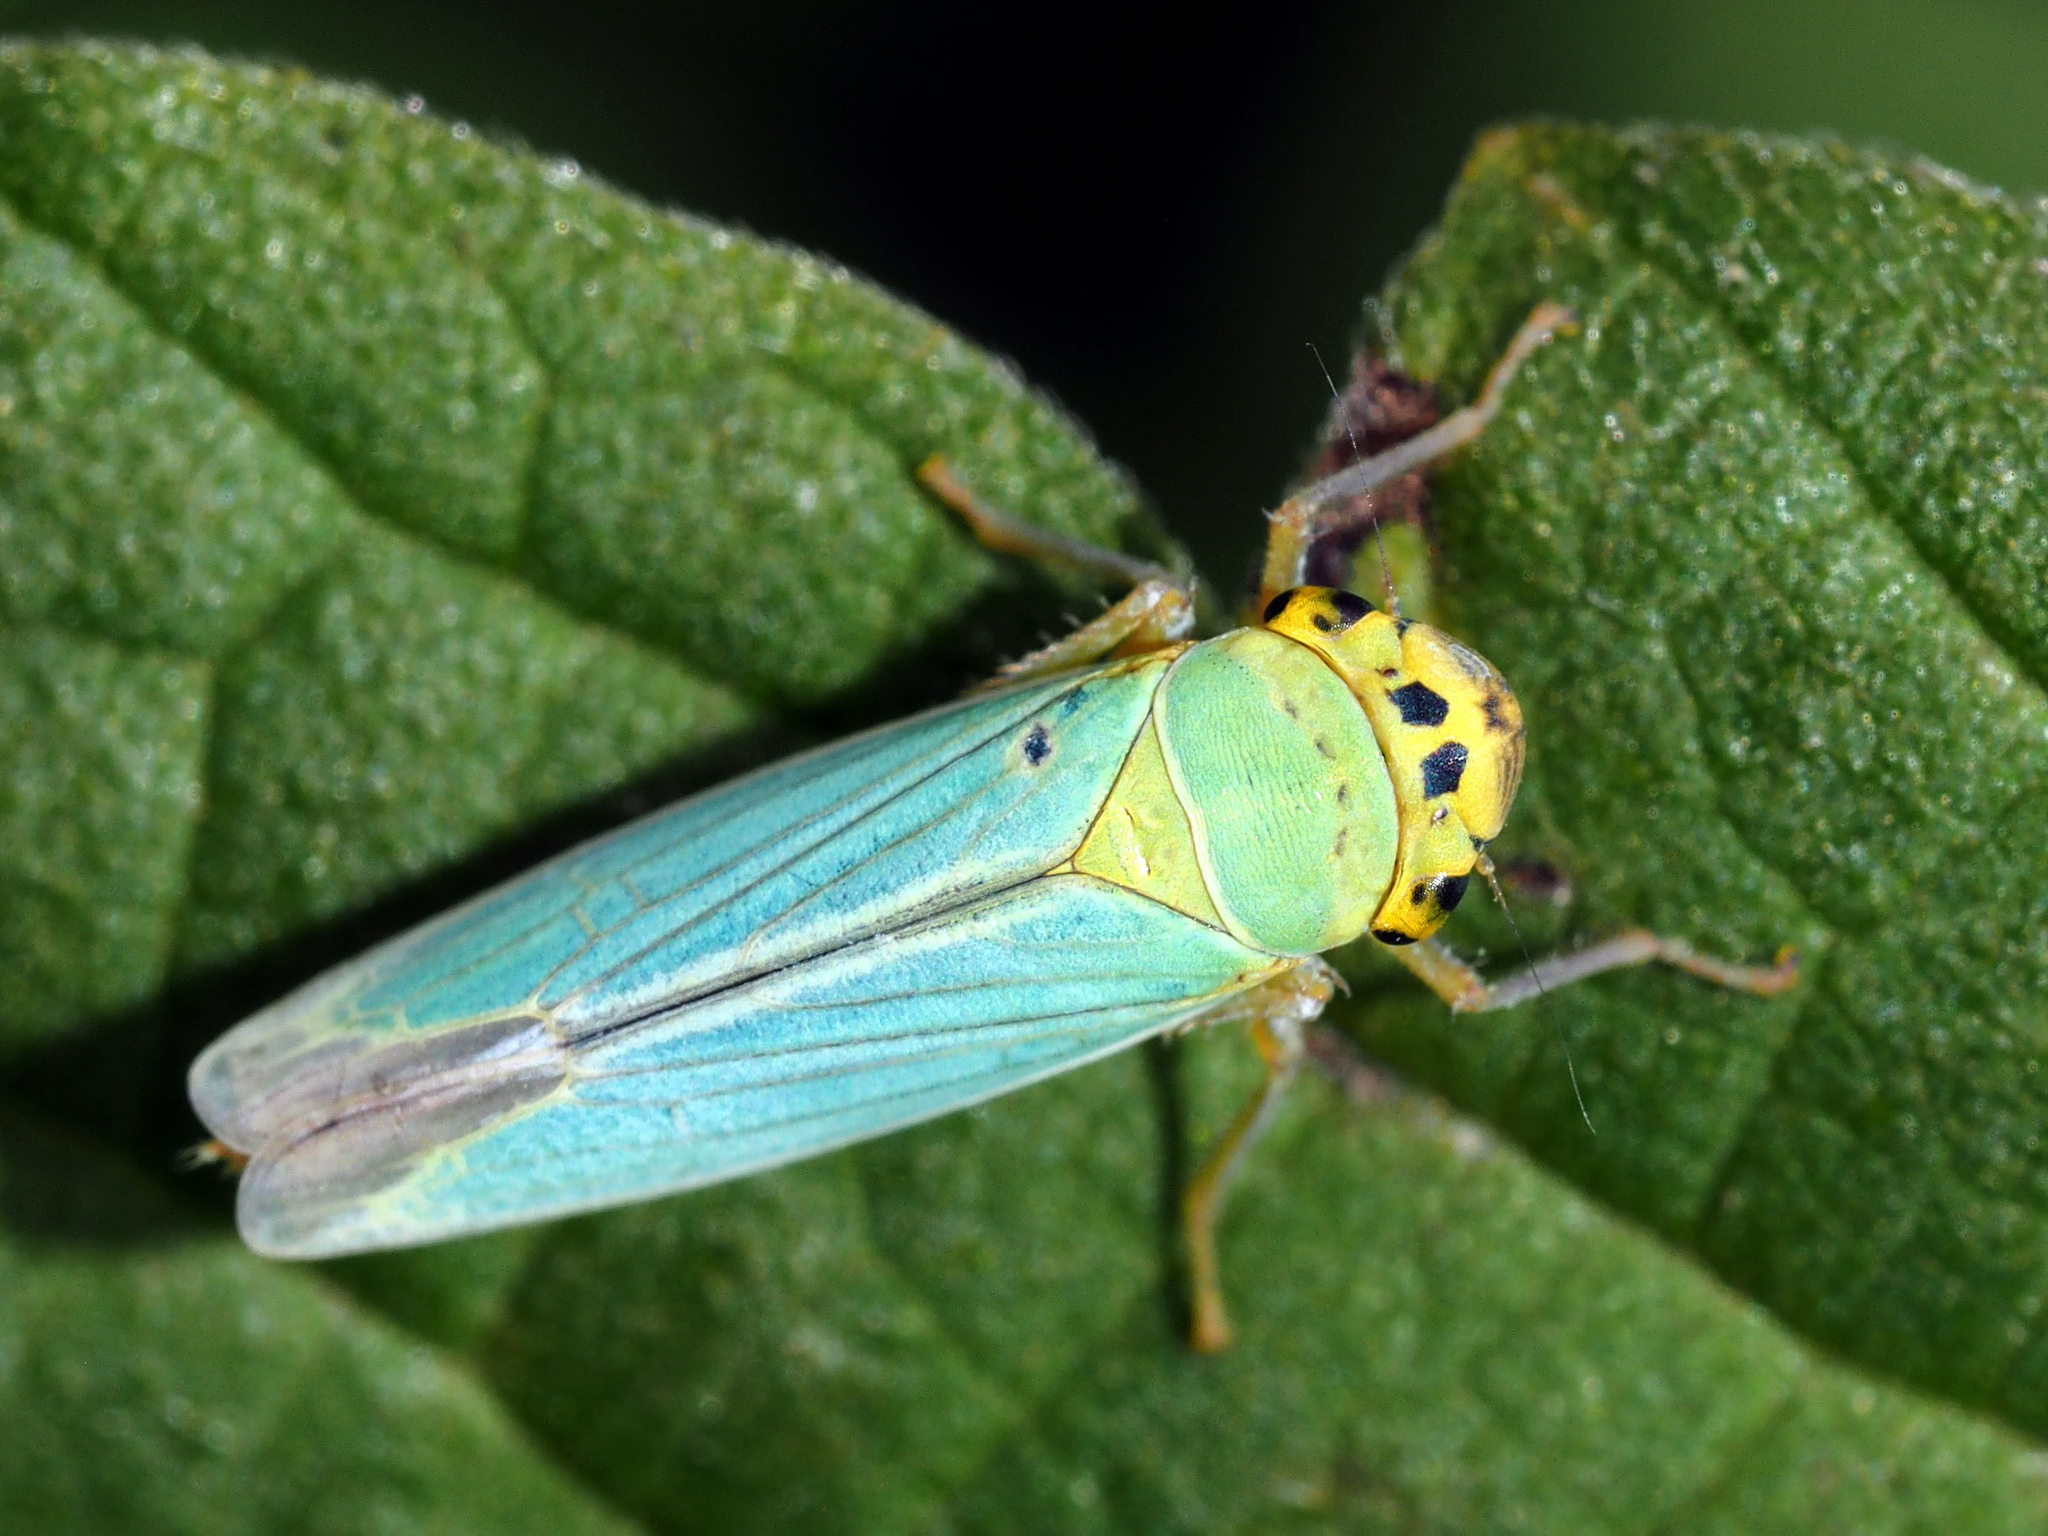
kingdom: Animalia
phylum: Arthropoda
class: Insecta
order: Hemiptera
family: Cicadellidae
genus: Cicadella
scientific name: Cicadella viridis
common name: Leafhopper
